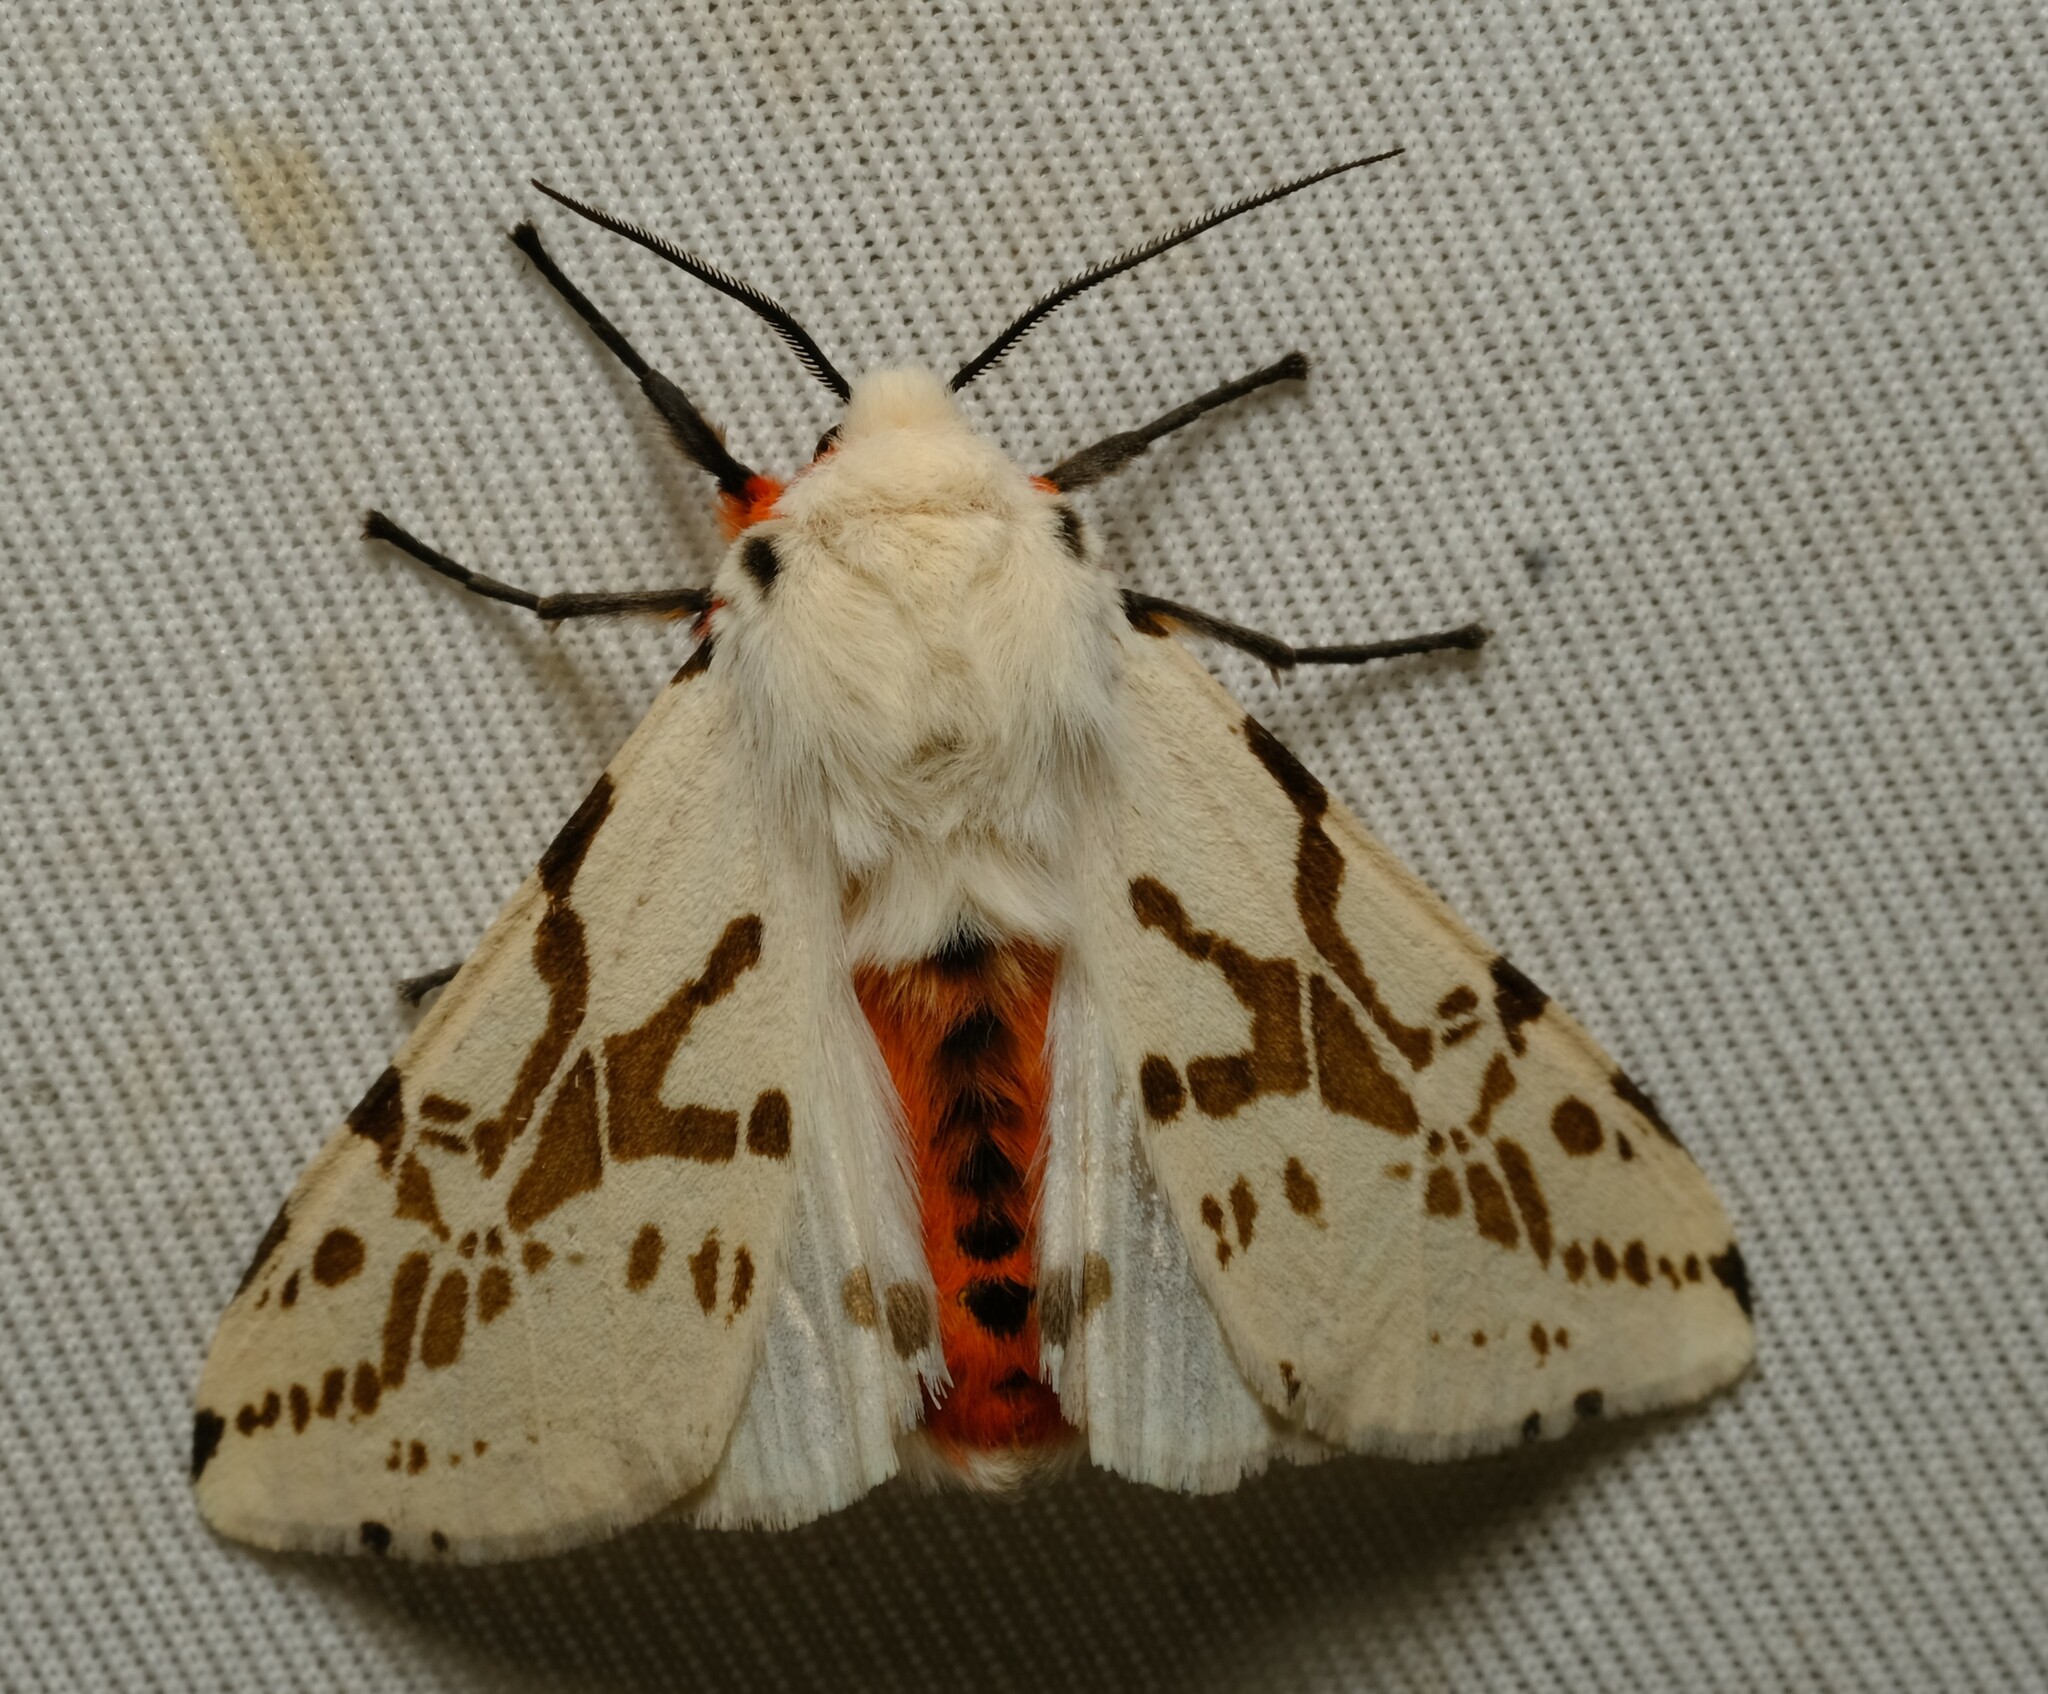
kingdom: Animalia
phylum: Arthropoda
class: Insecta
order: Lepidoptera
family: Erebidae
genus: Ardices
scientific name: Ardices canescens
